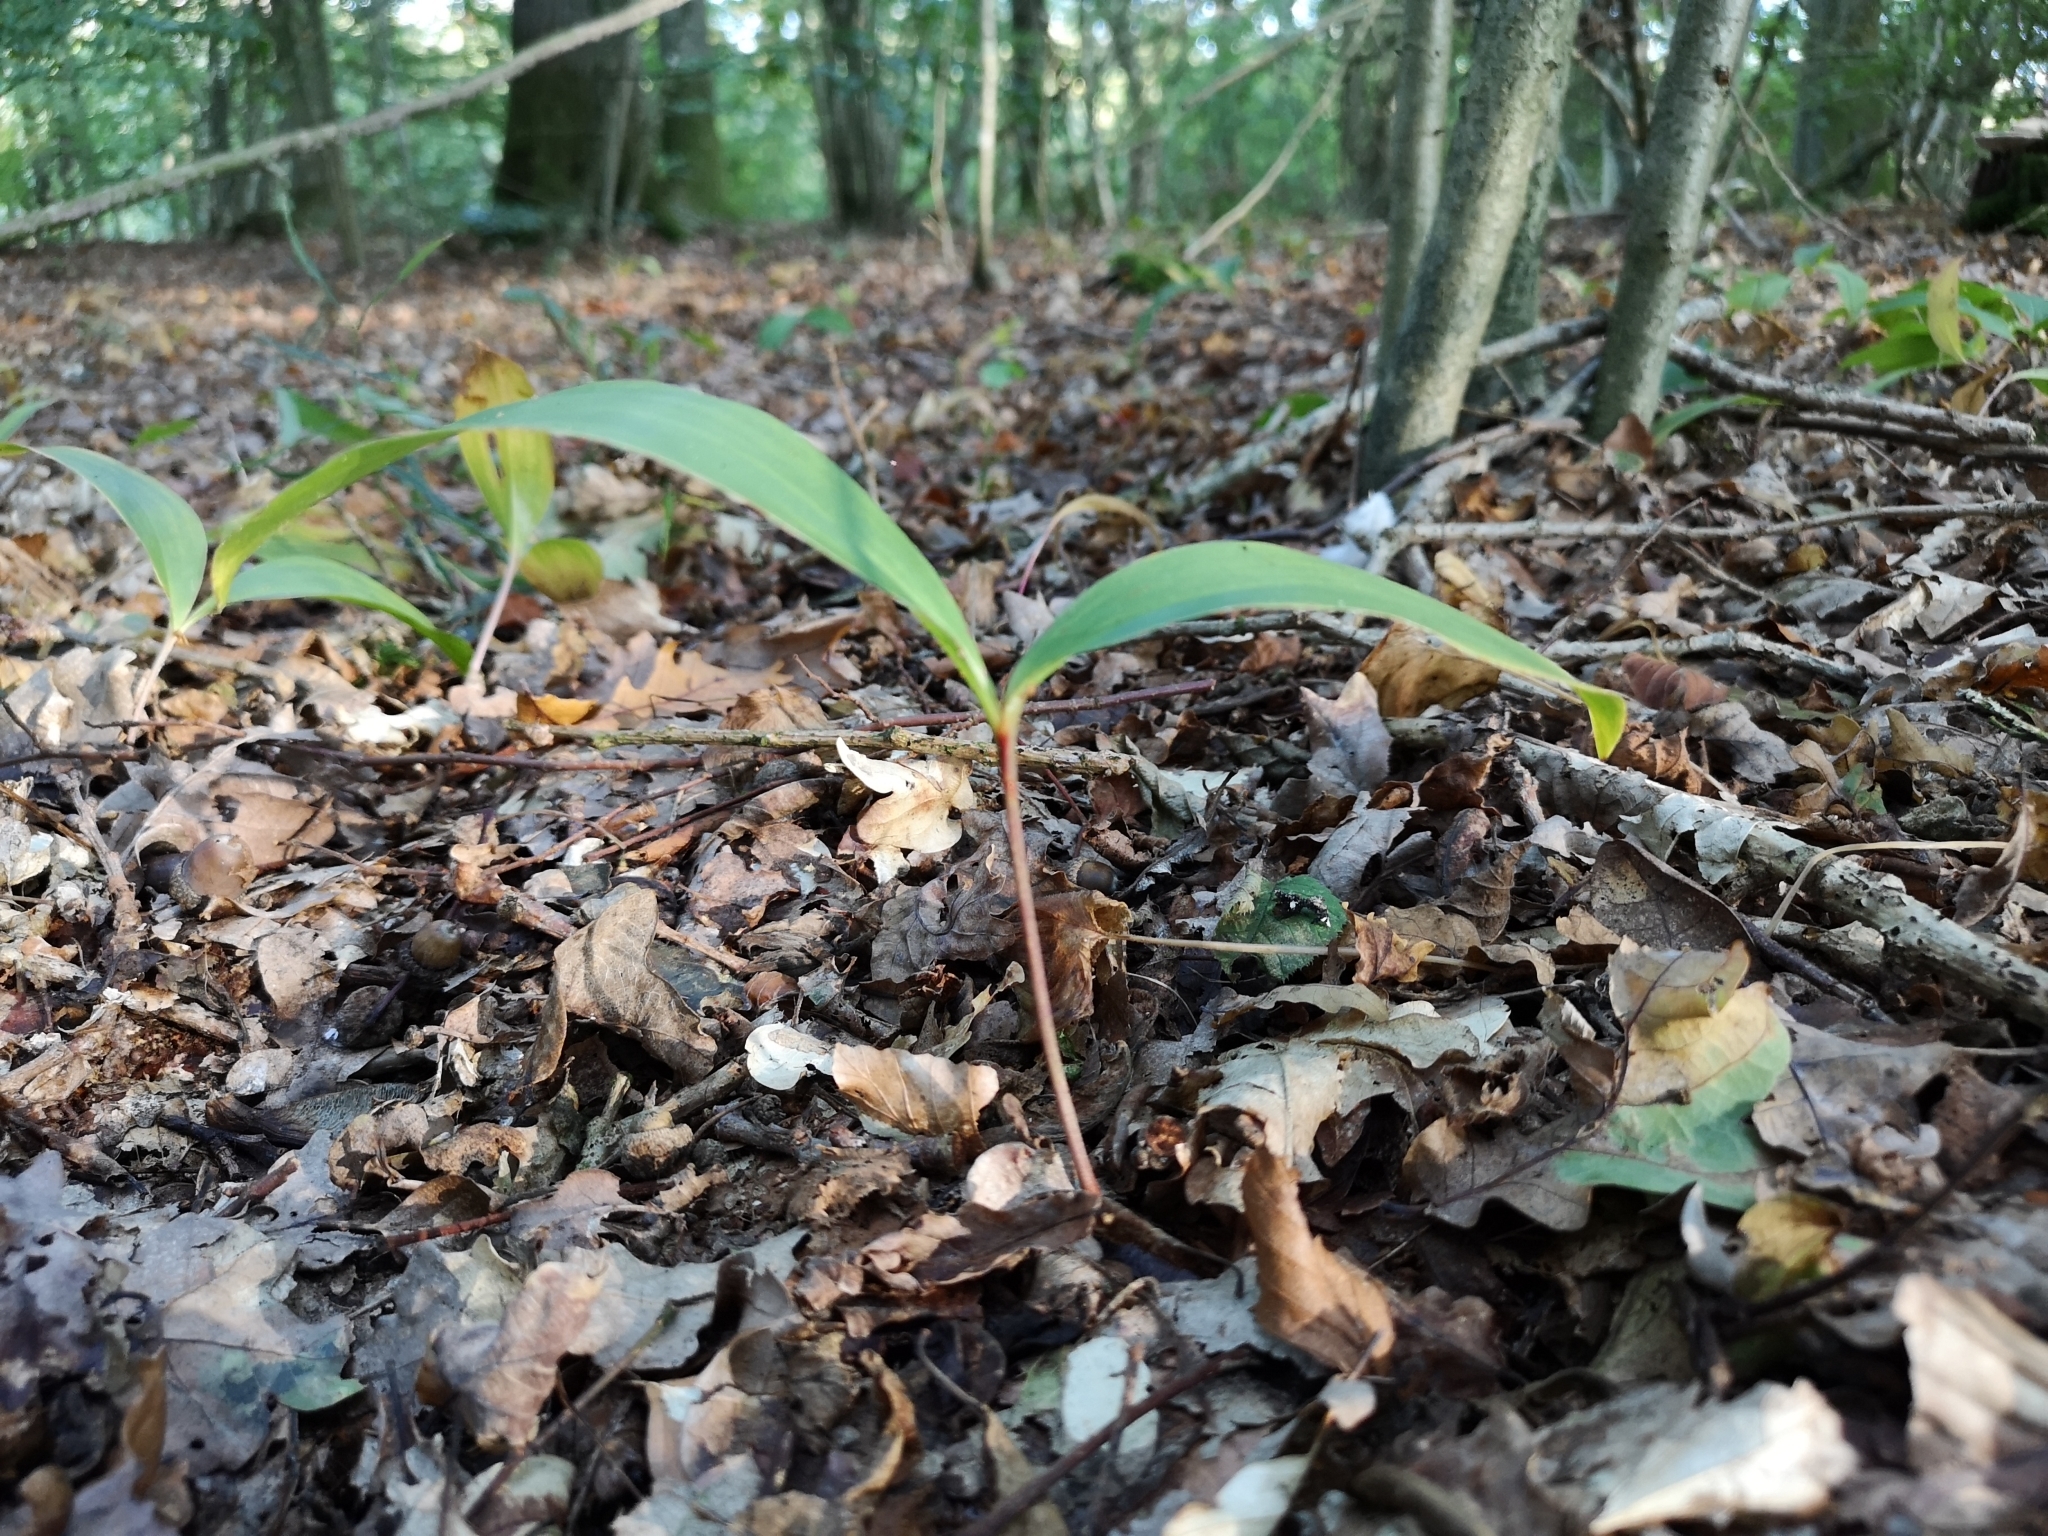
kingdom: Plantae
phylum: Tracheophyta
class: Liliopsida
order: Asparagales
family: Asparagaceae
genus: Convallaria
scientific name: Convallaria majalis
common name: Lily-of-the-valley
